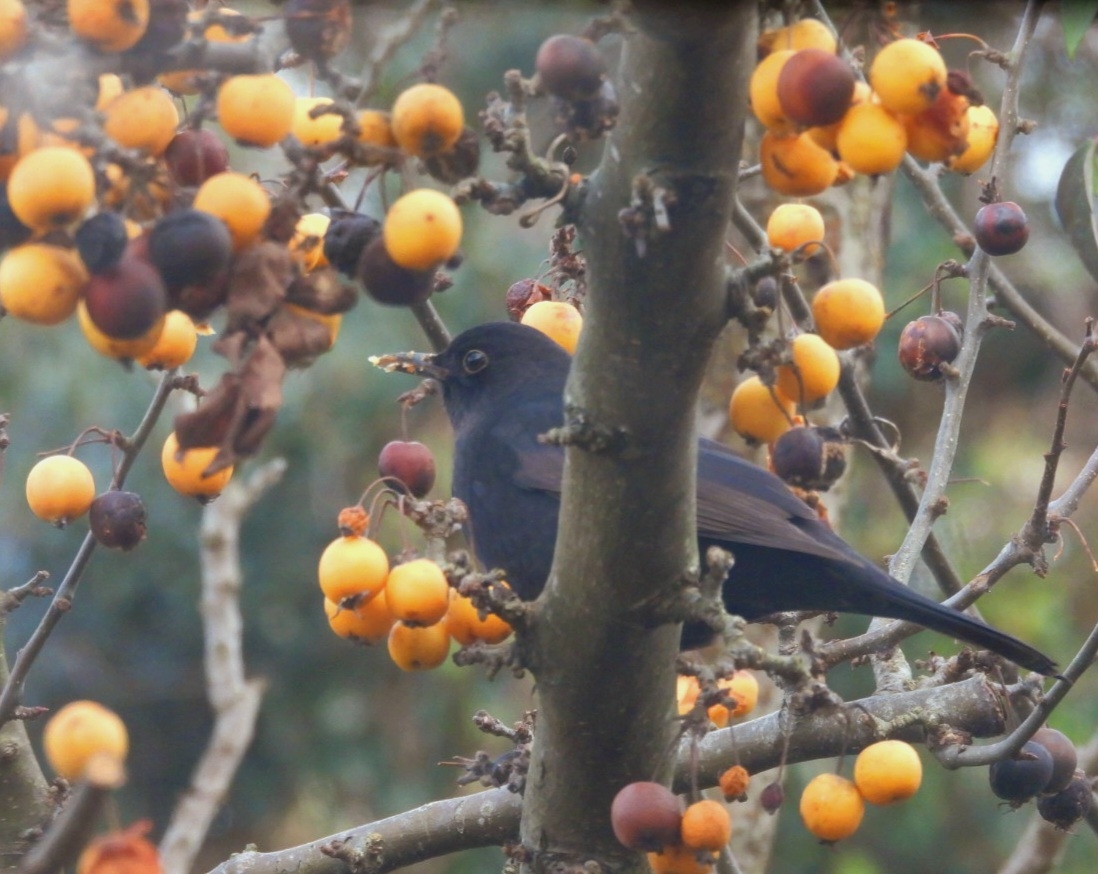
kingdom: Animalia
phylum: Chordata
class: Aves
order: Passeriformes
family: Turdidae
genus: Turdus
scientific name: Turdus merula
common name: Common blackbird
